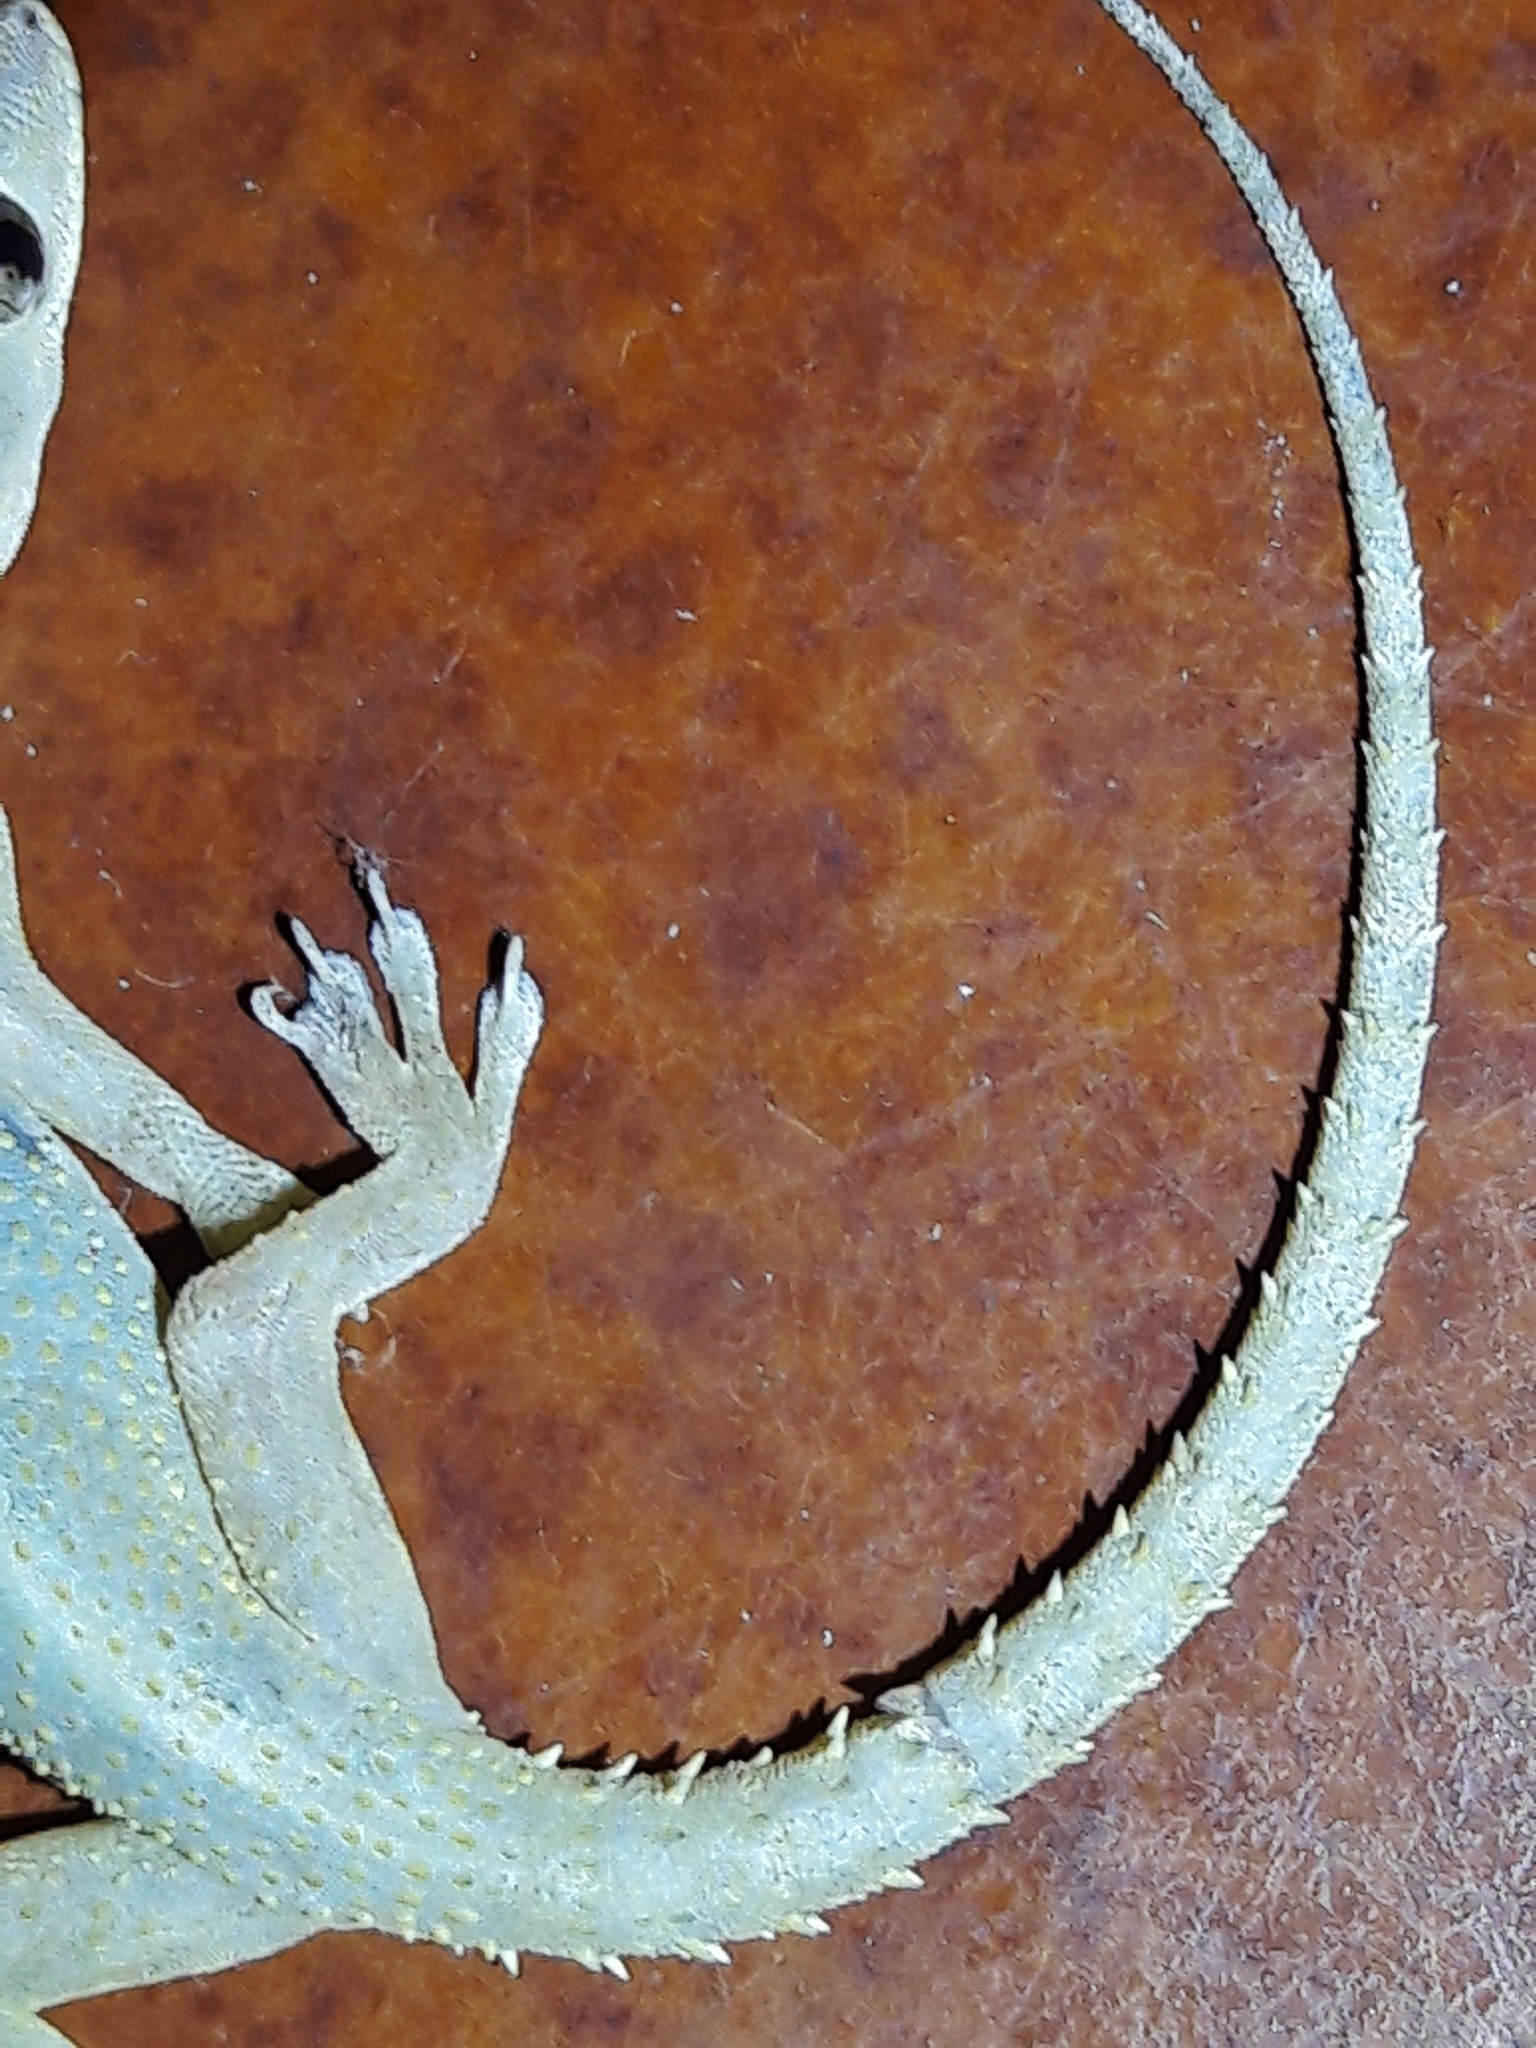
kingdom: Animalia
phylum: Chordata
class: Squamata
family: Gekkonidae
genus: Hemidactylus
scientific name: Hemidactylus mabouia
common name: House gecko
